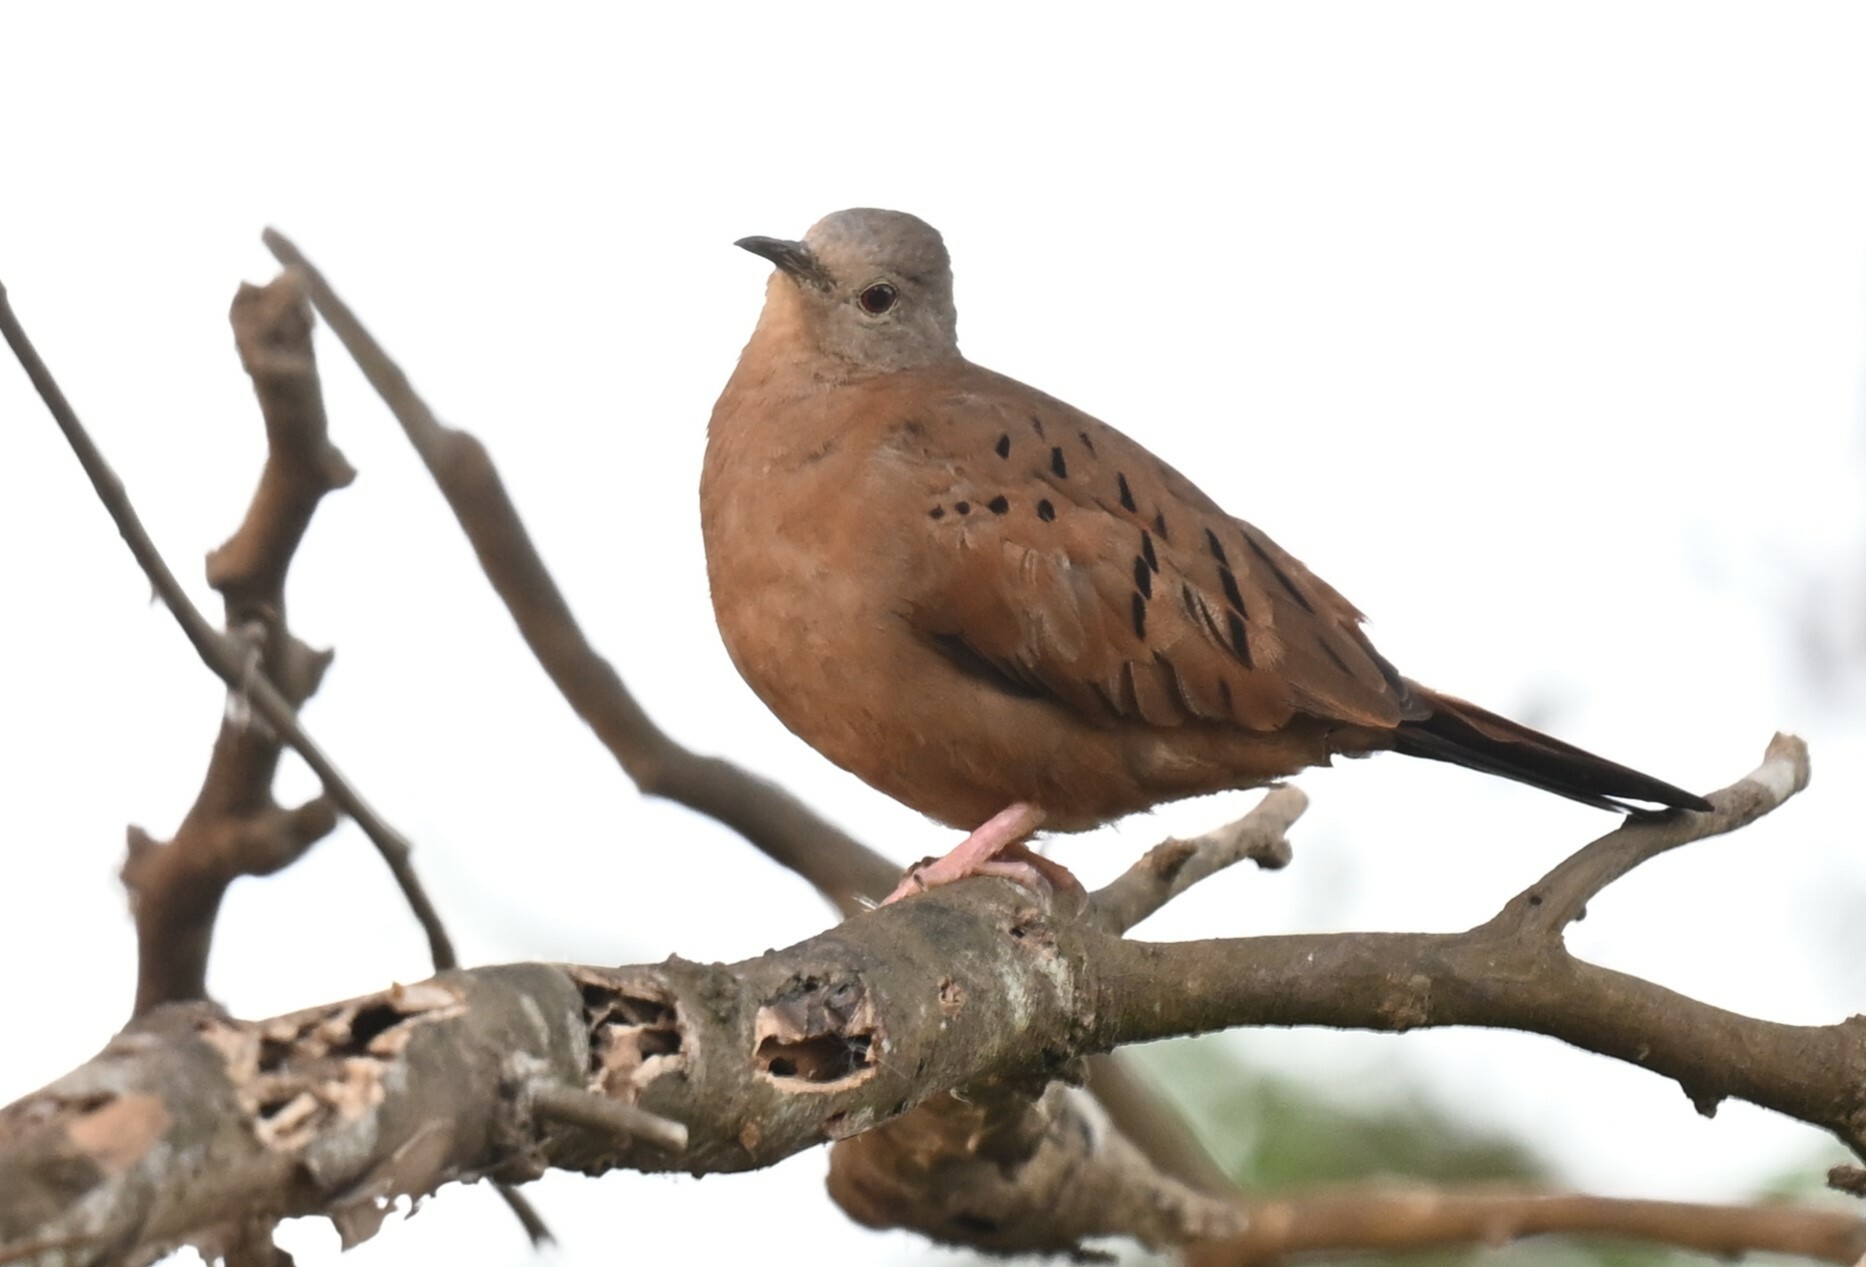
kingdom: Animalia
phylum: Chordata
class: Aves
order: Columbiformes
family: Columbidae
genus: Columbina
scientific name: Columbina talpacoti
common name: Ruddy ground dove
